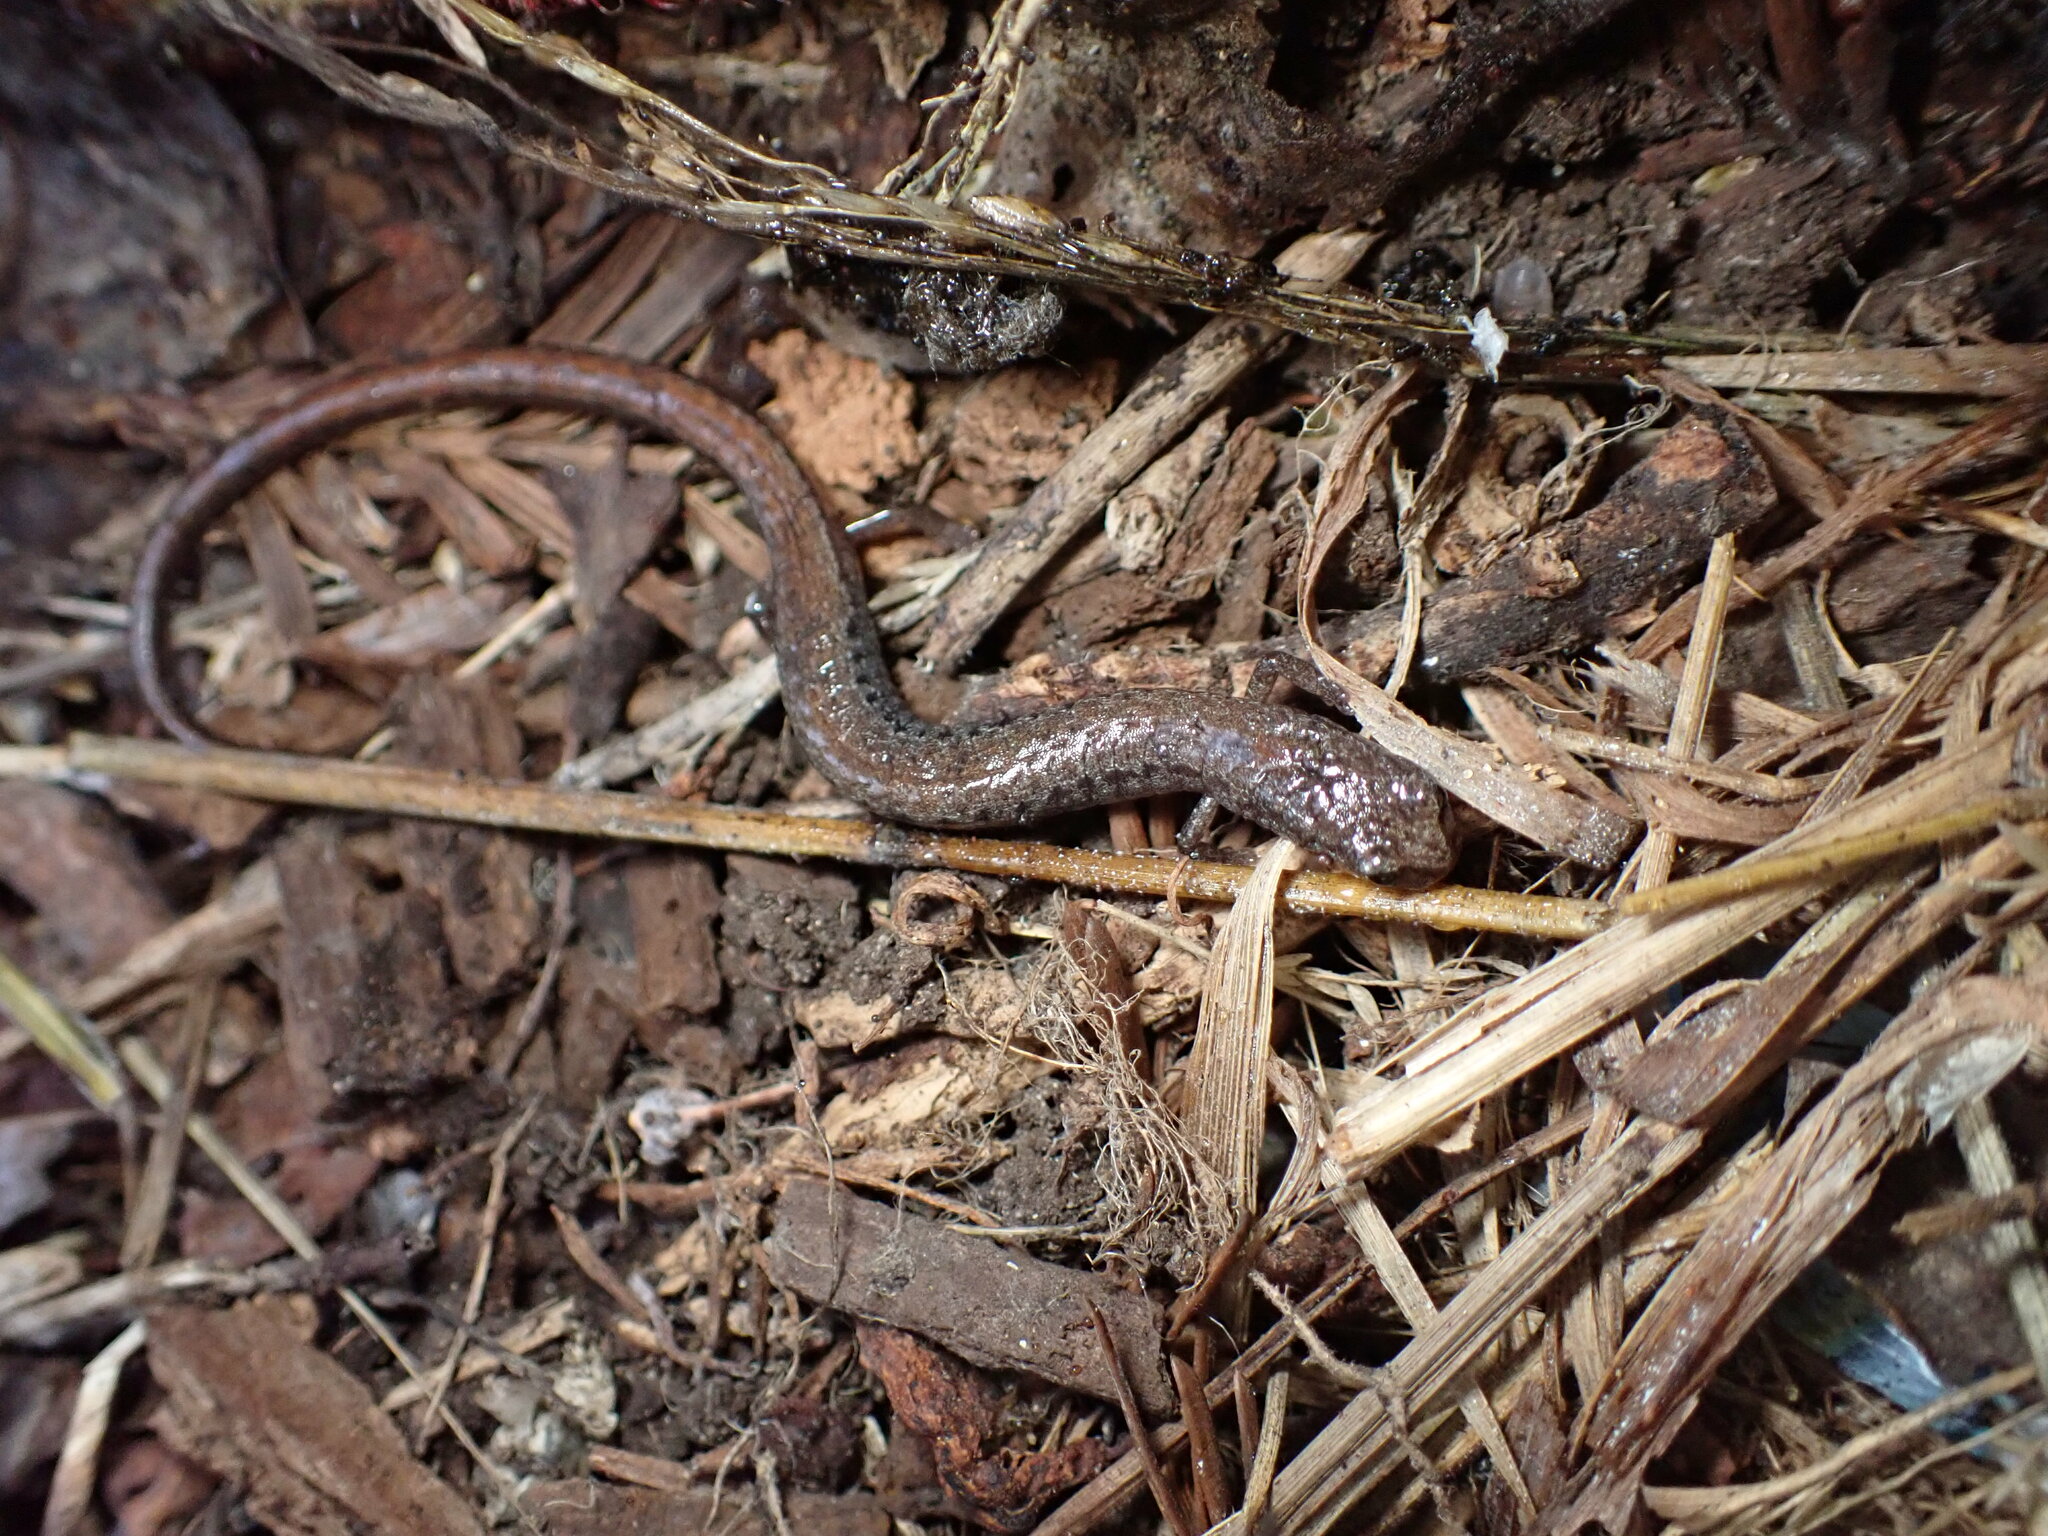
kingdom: Animalia
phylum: Chordata
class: Amphibia
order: Caudata
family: Plethodontidae
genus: Batrachoseps
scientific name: Batrachoseps attenuatus
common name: California slender salamander
